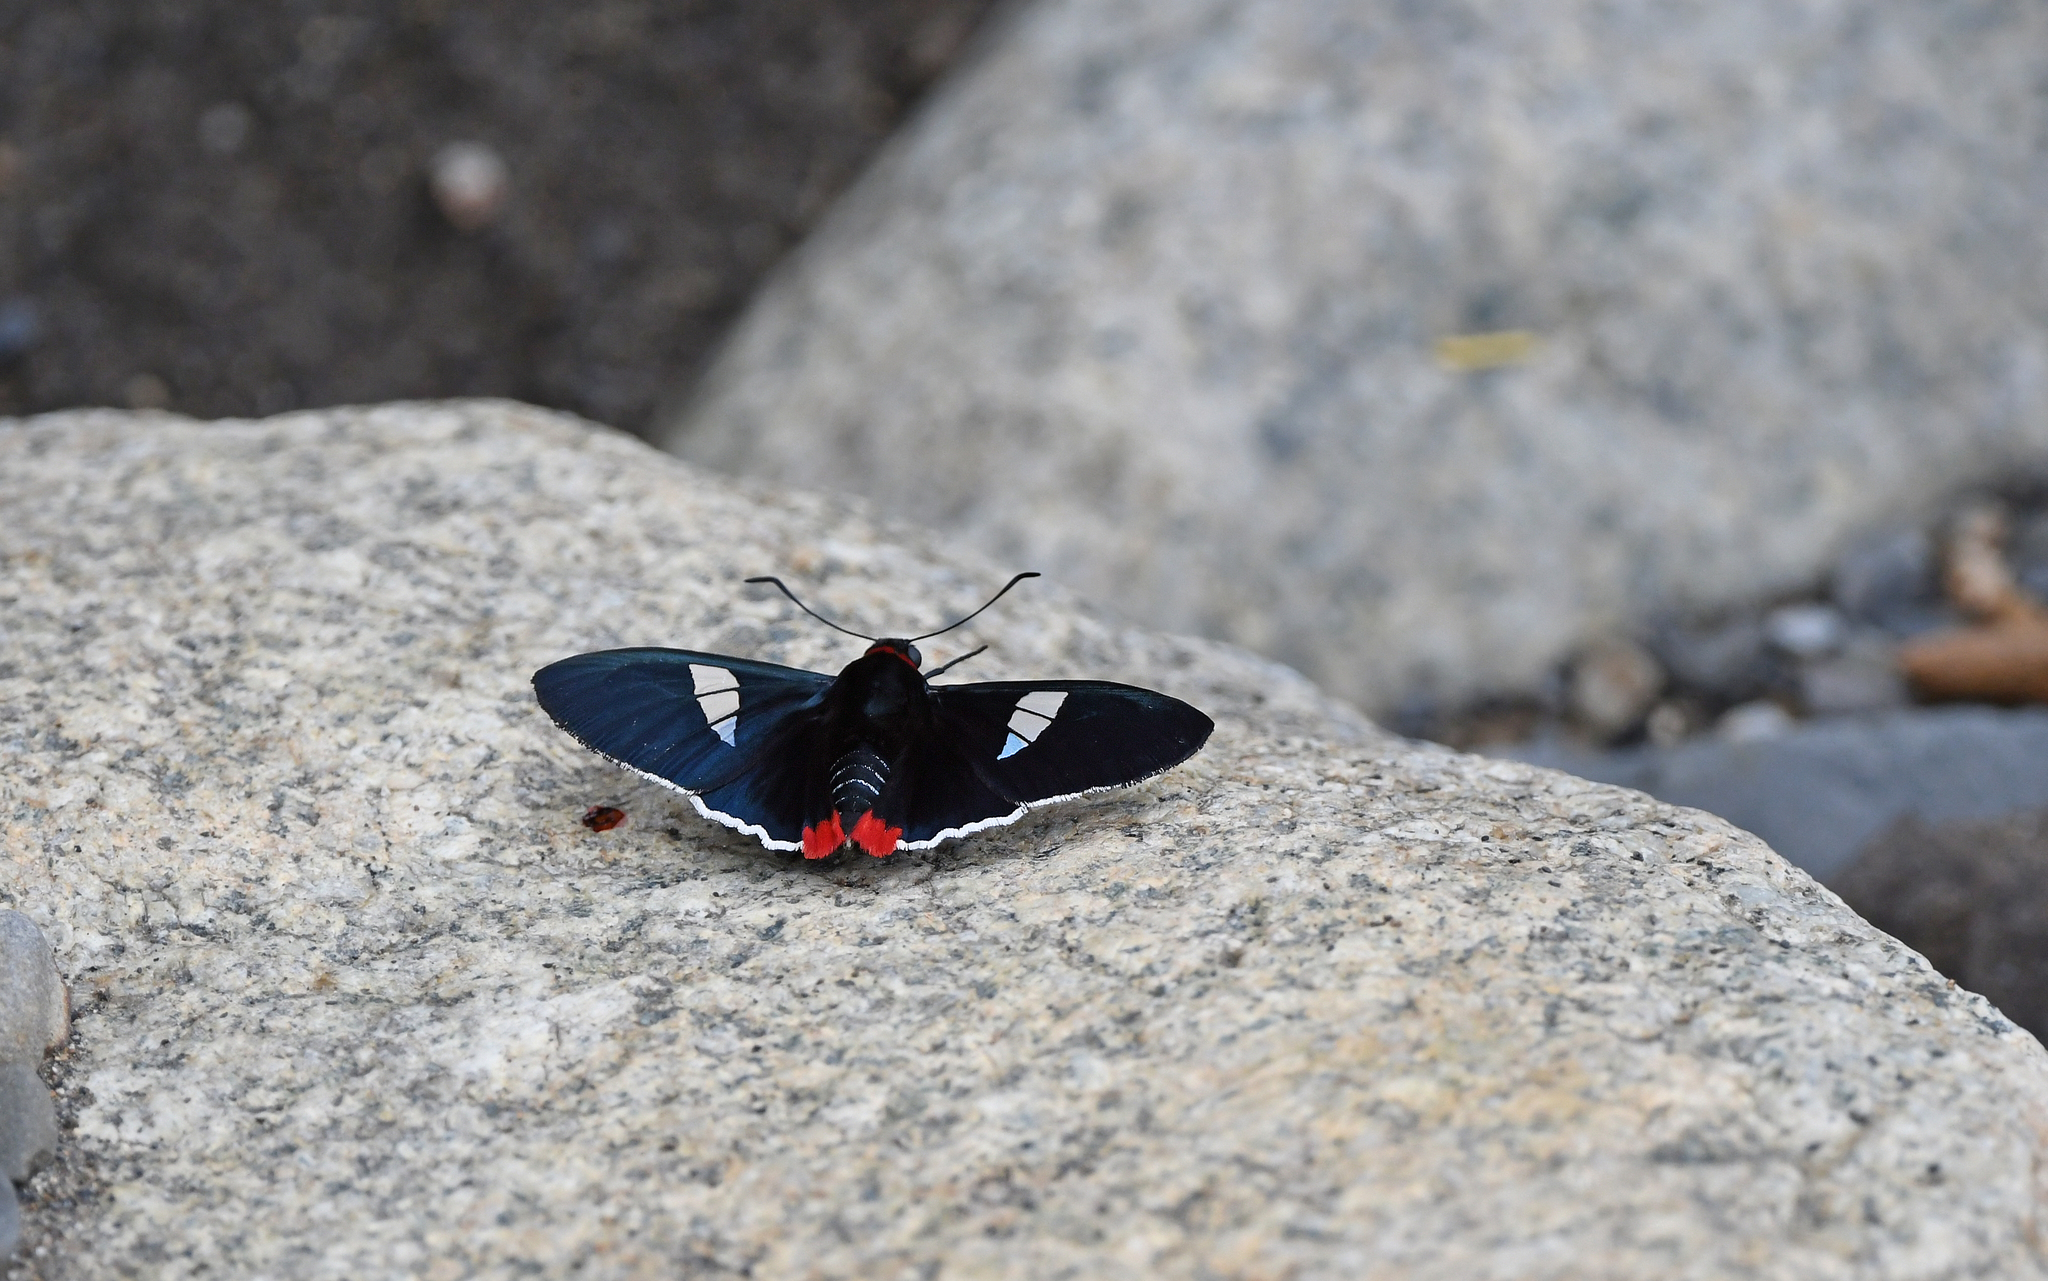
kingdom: Animalia
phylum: Arthropoda
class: Insecta
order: Lepidoptera
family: Hesperiidae
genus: Aspitha
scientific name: Aspitha agenoria
